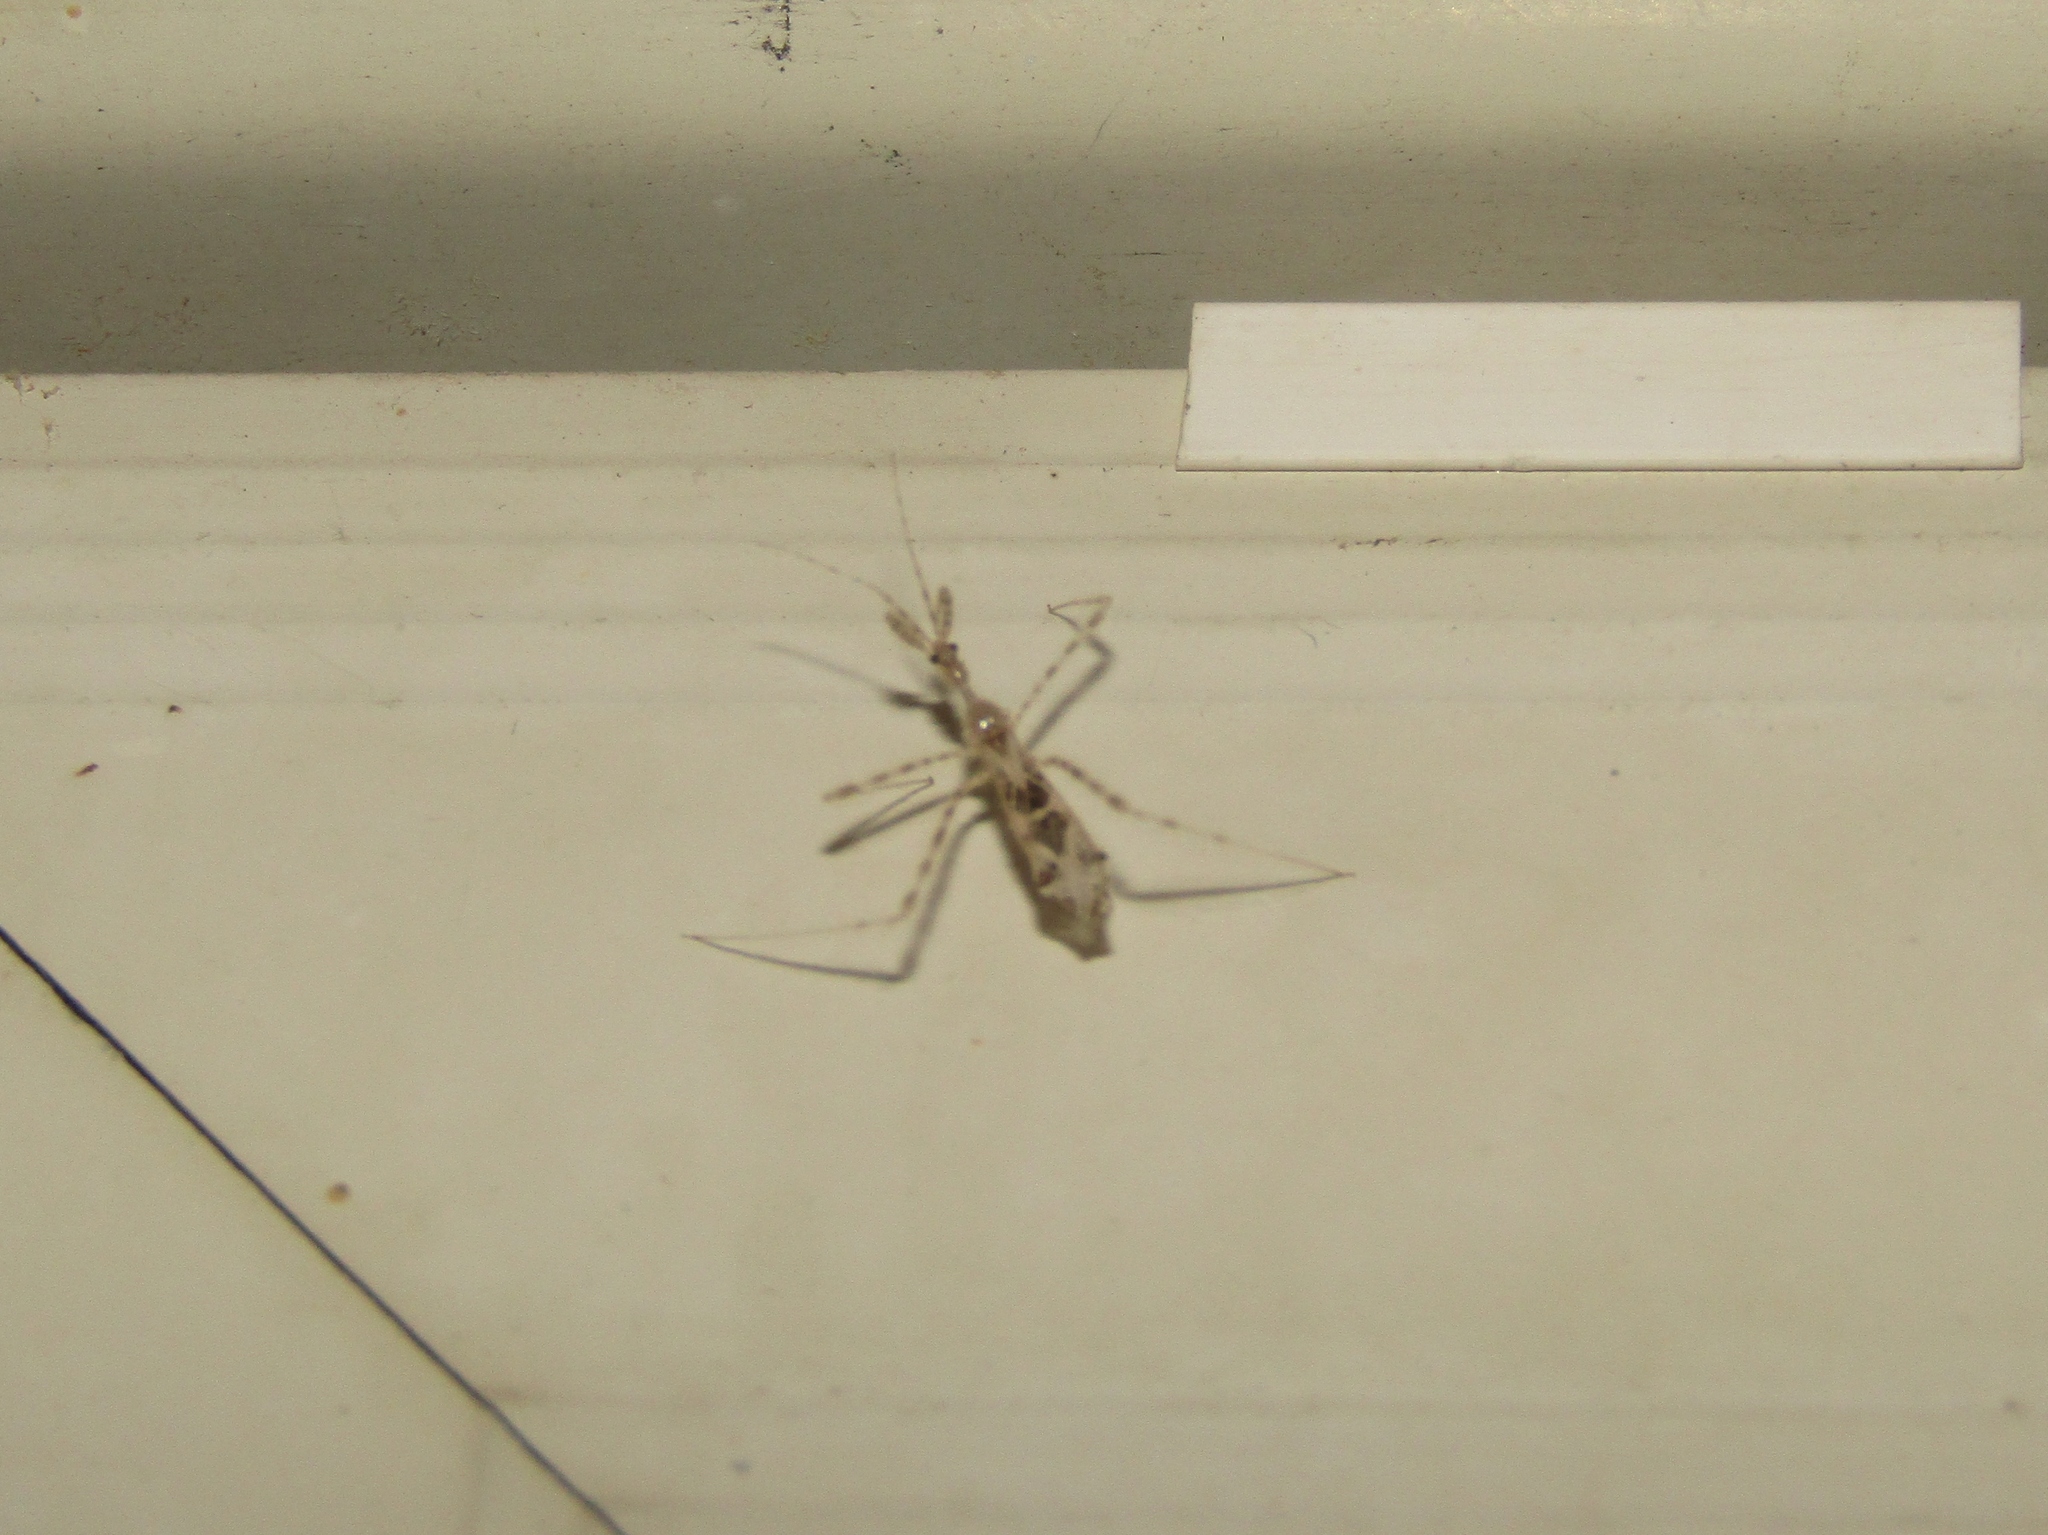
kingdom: Animalia
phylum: Arthropoda
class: Insecta
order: Hemiptera
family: Reduviidae
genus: Stenolemus
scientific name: Stenolemus lanipes
